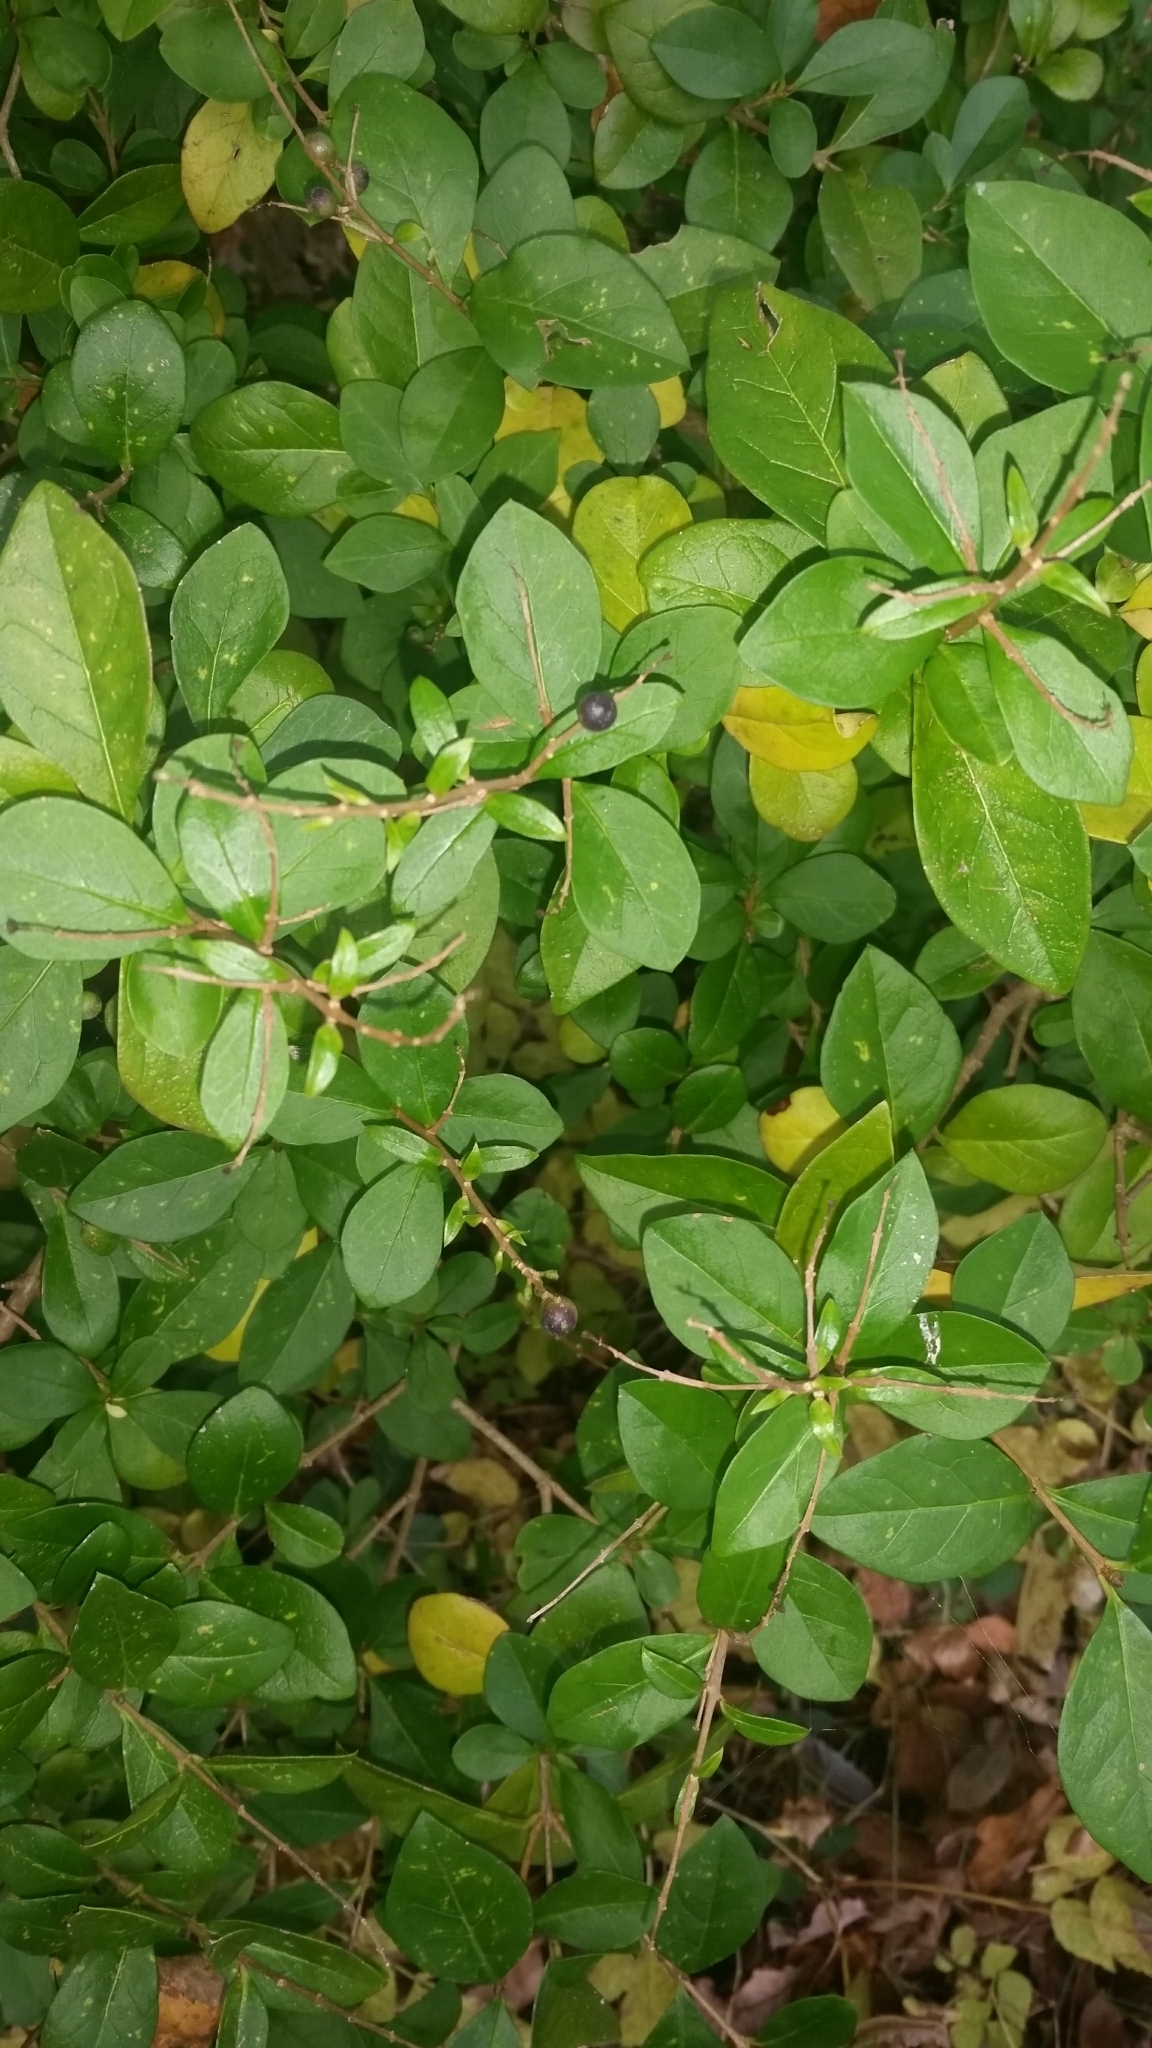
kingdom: Plantae
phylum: Tracheophyta
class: Magnoliopsida
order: Lamiales
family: Oleaceae
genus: Ligustrum
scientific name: Ligustrum ovalifolium
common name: California privet
